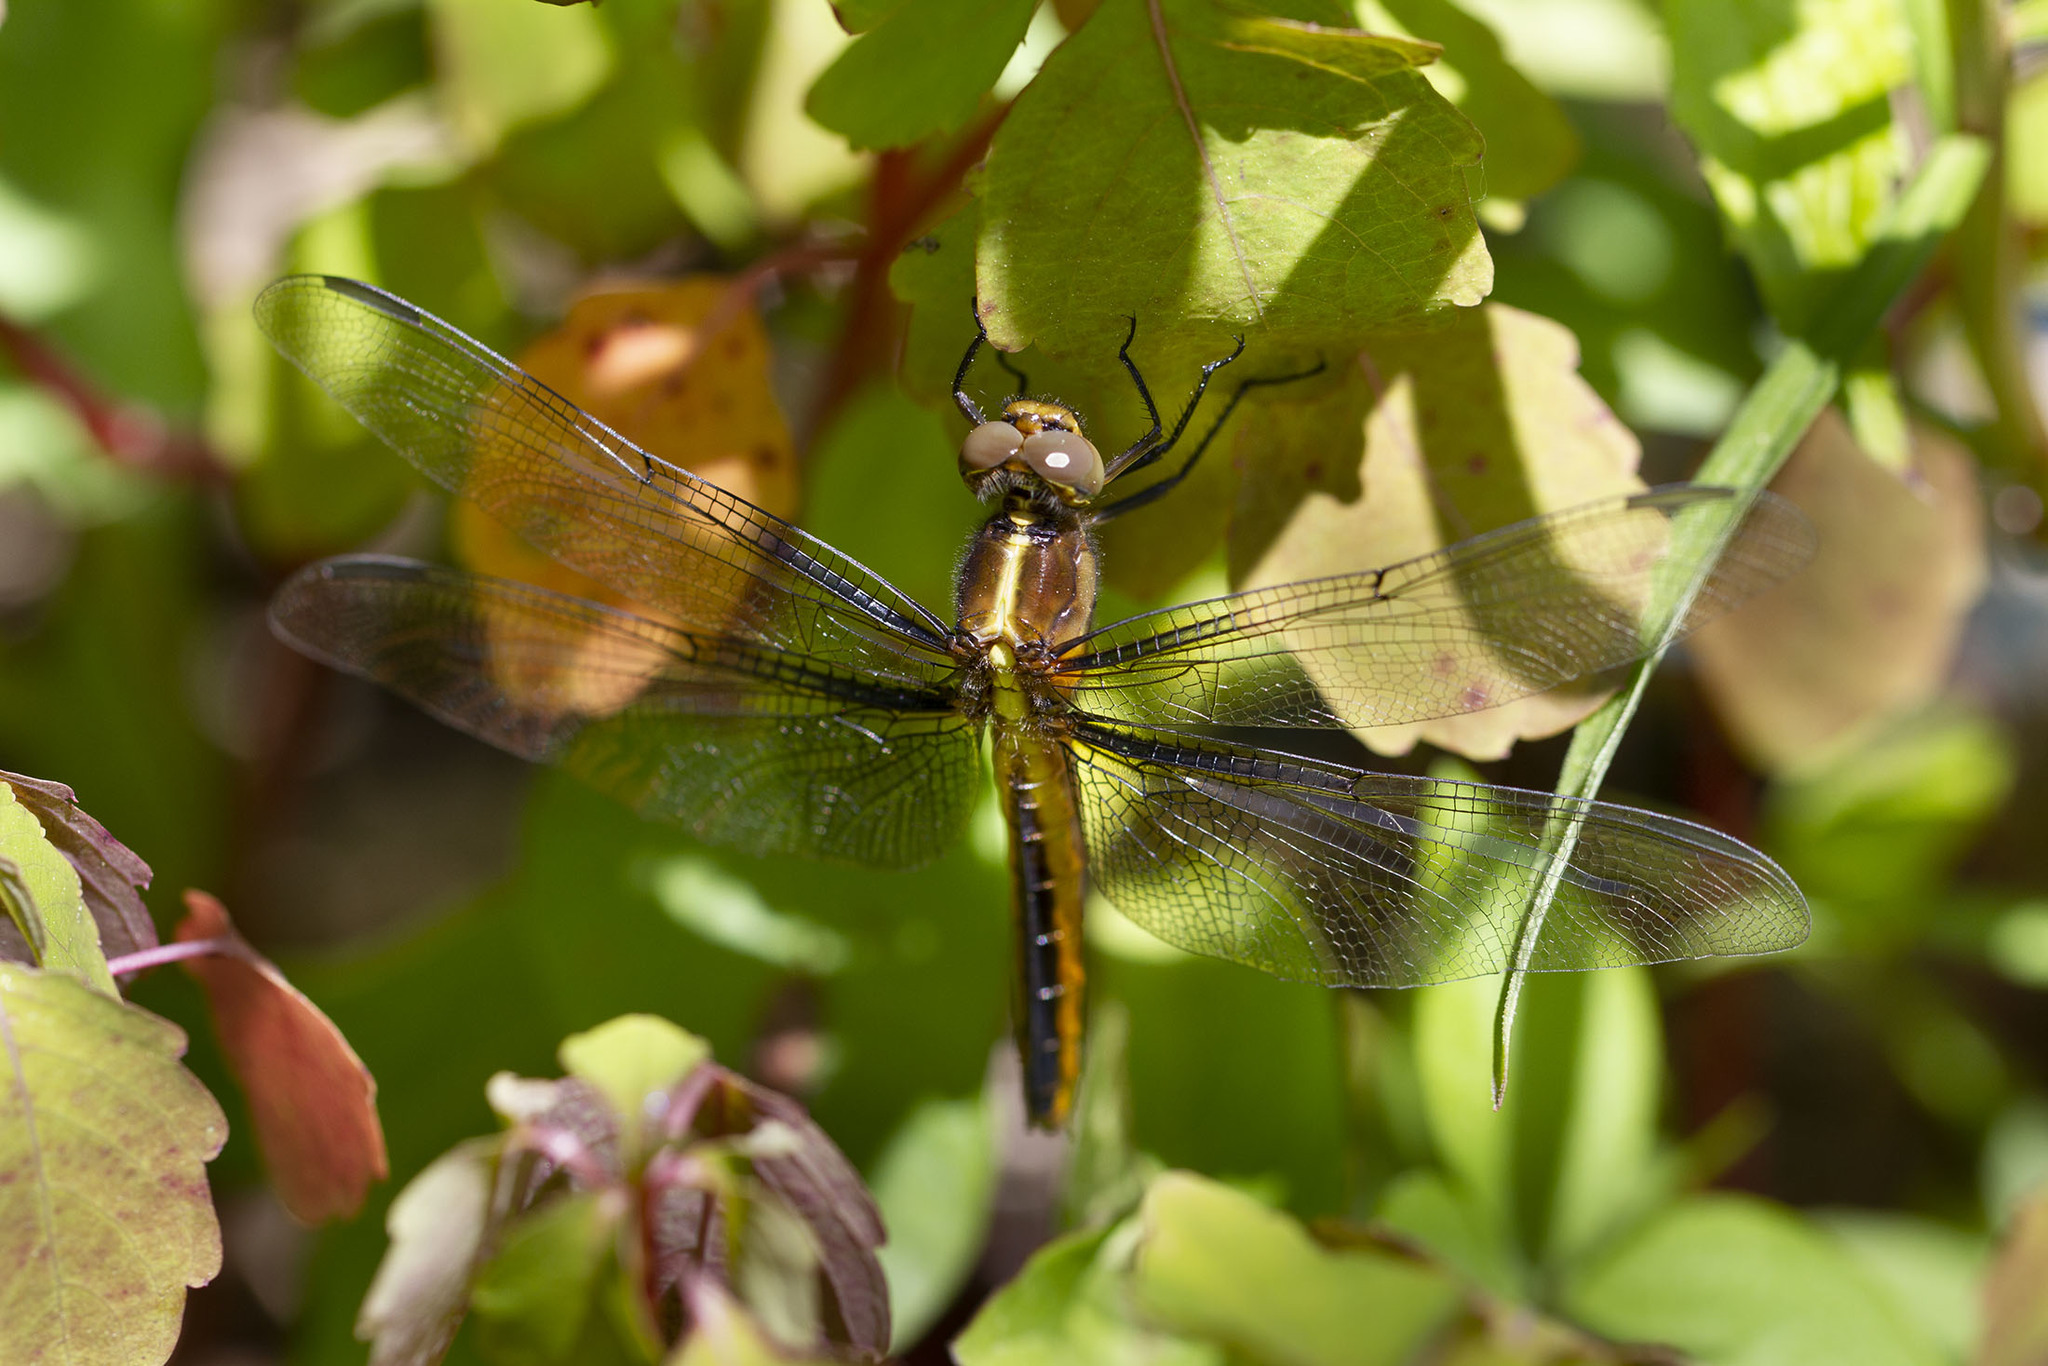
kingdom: Animalia
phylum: Arthropoda
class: Insecta
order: Odonata
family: Libellulidae
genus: Libellula
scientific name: Libellula luctuosa
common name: Widow skimmer
